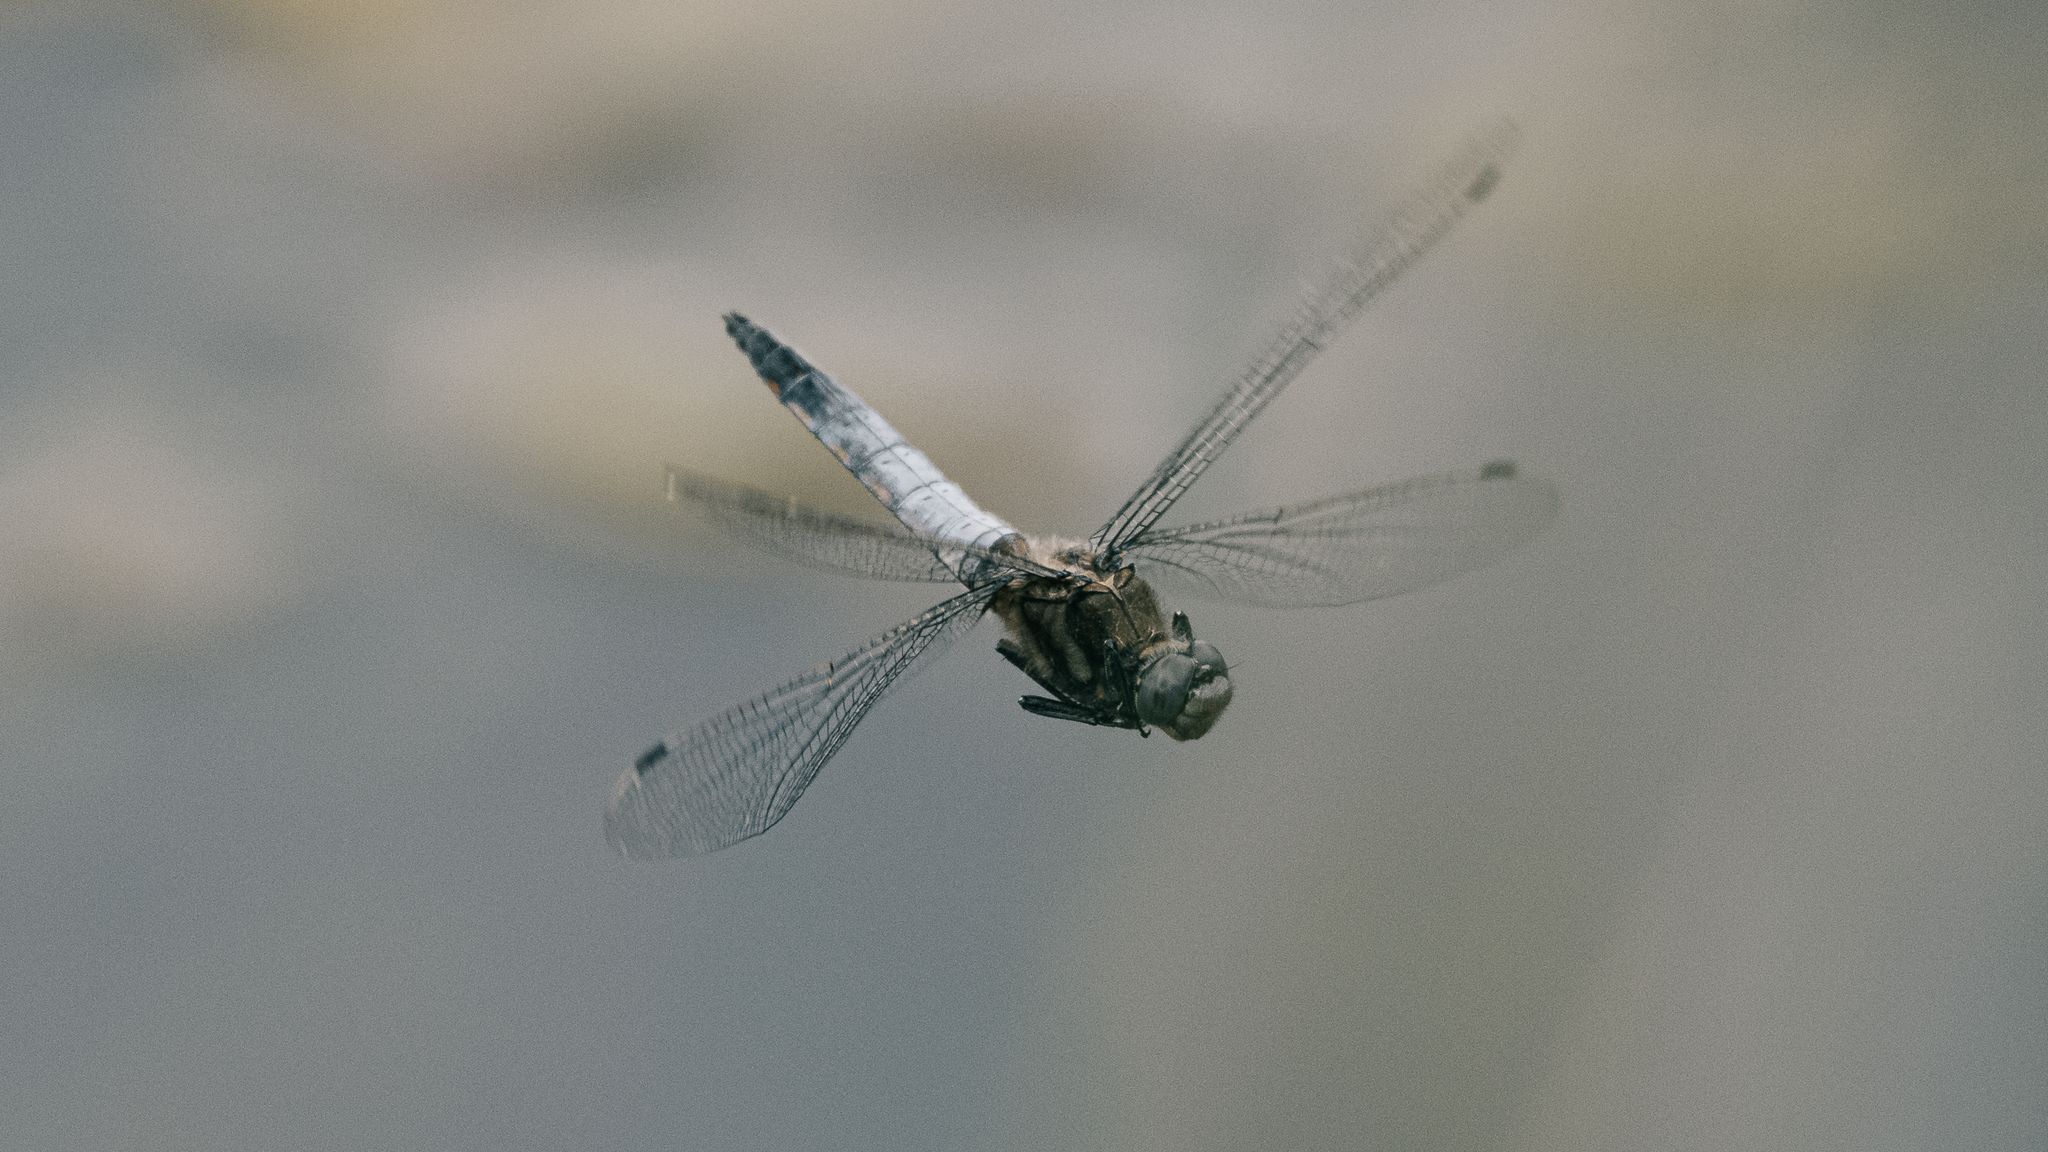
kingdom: Animalia
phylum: Arthropoda
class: Insecta
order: Odonata
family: Libellulidae
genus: Orthetrum
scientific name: Orthetrum cancellatum
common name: Black-tailed skimmer
